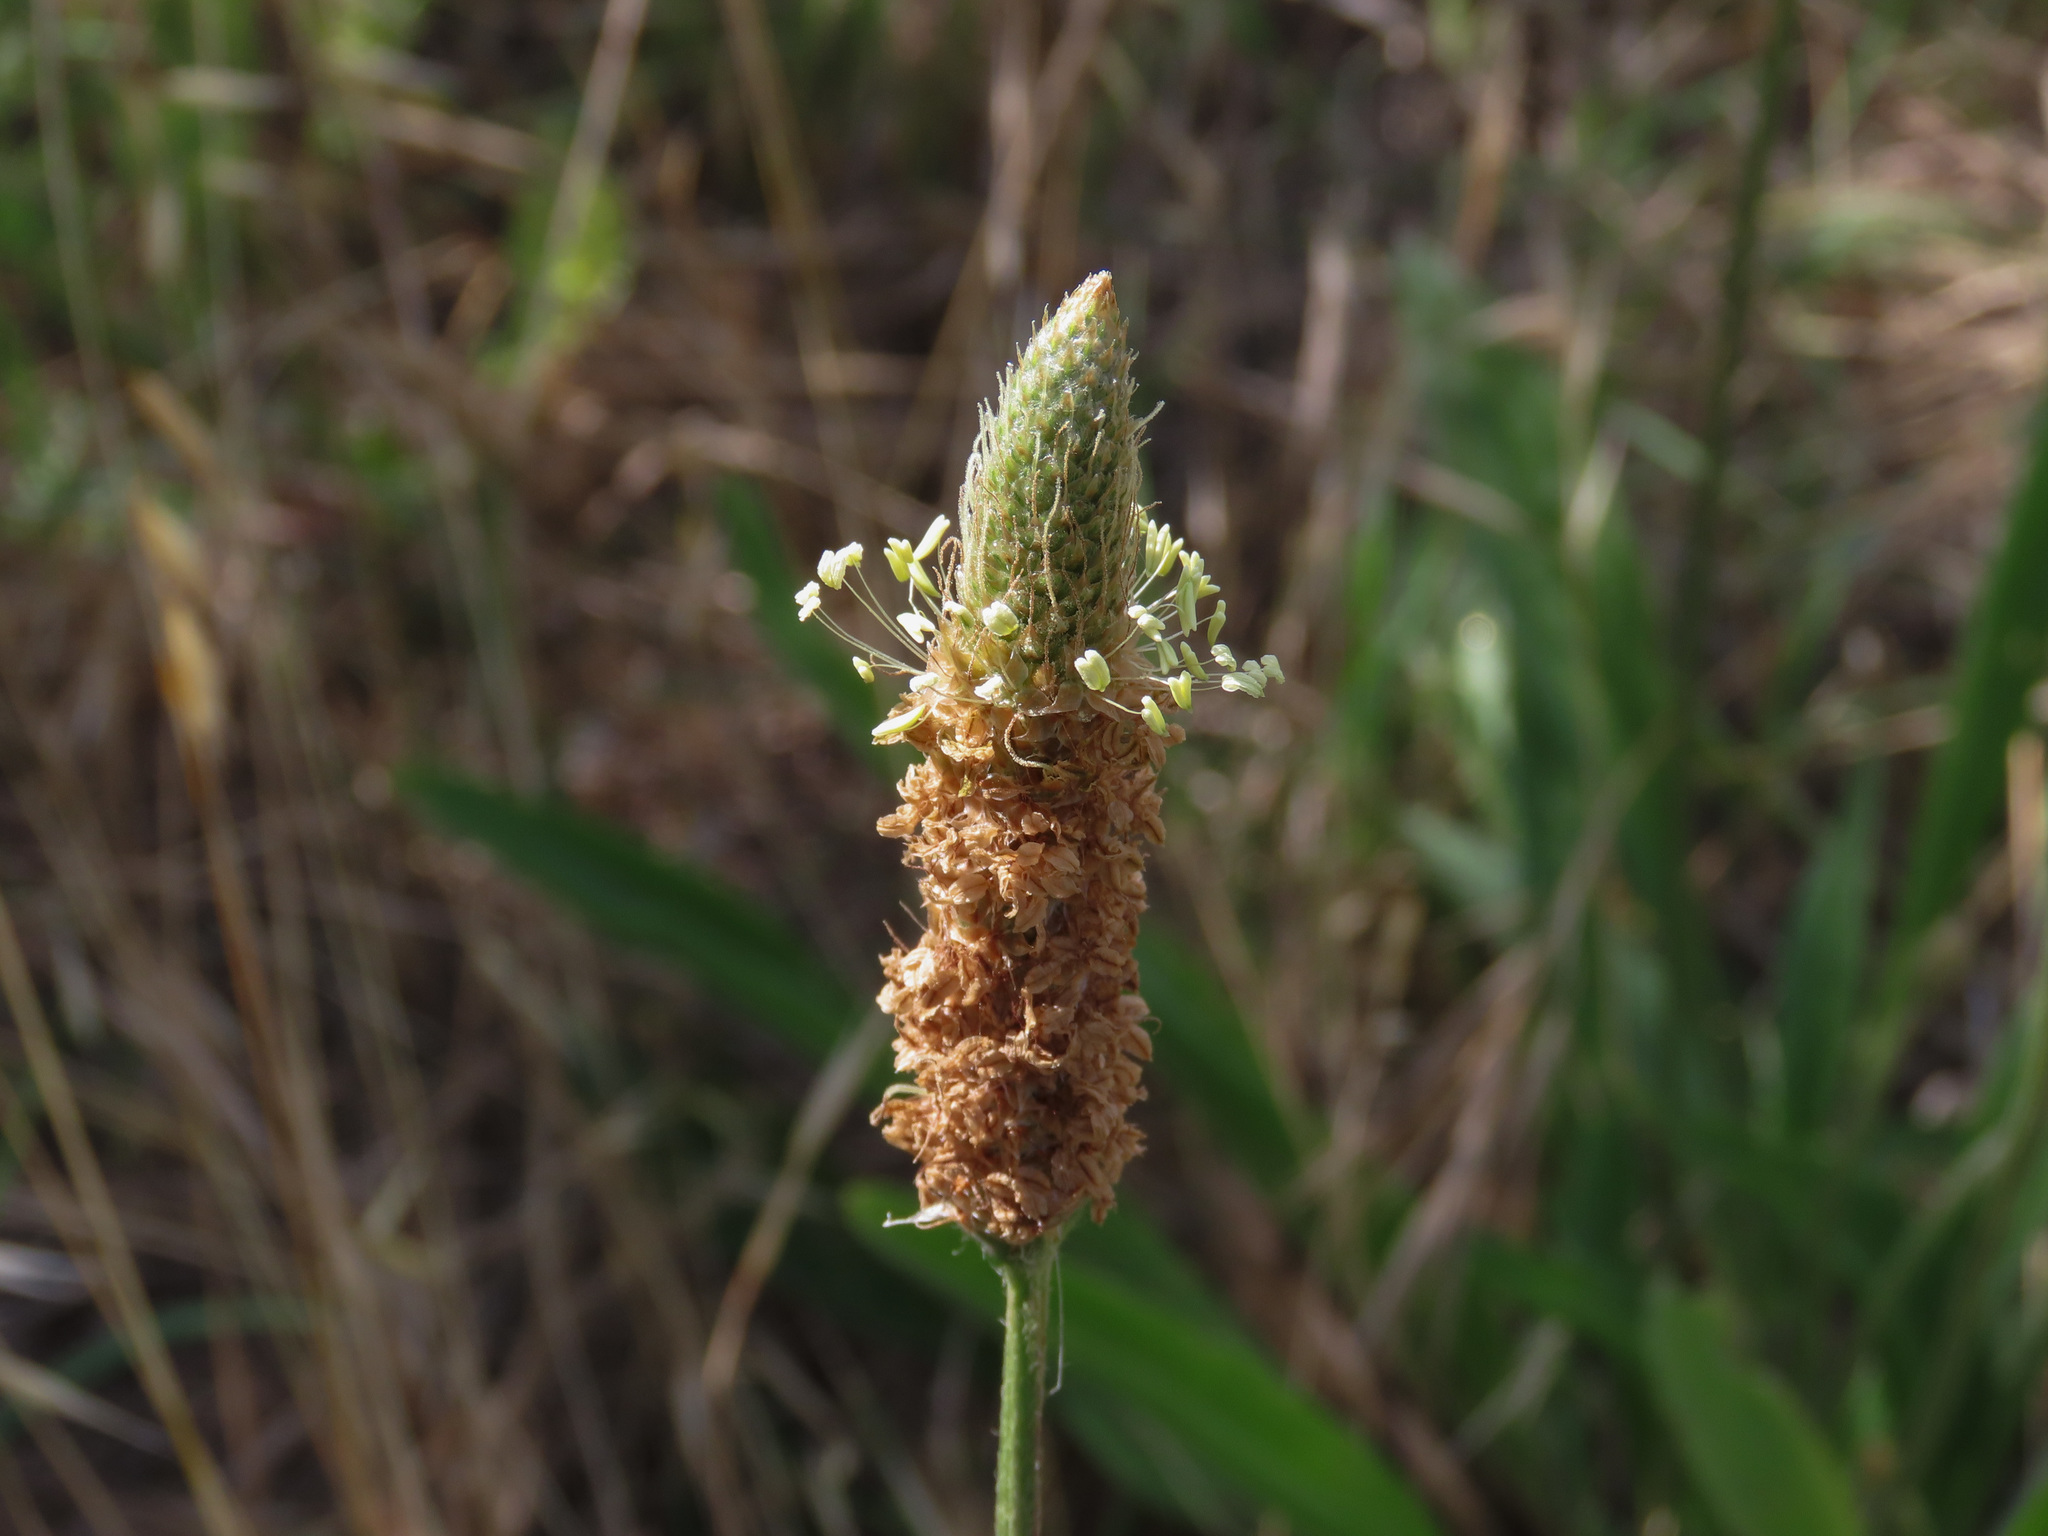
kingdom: Plantae
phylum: Tracheophyta
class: Magnoliopsida
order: Lamiales
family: Plantaginaceae
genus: Plantago
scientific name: Plantago lanceolata
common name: Ribwort plantain
